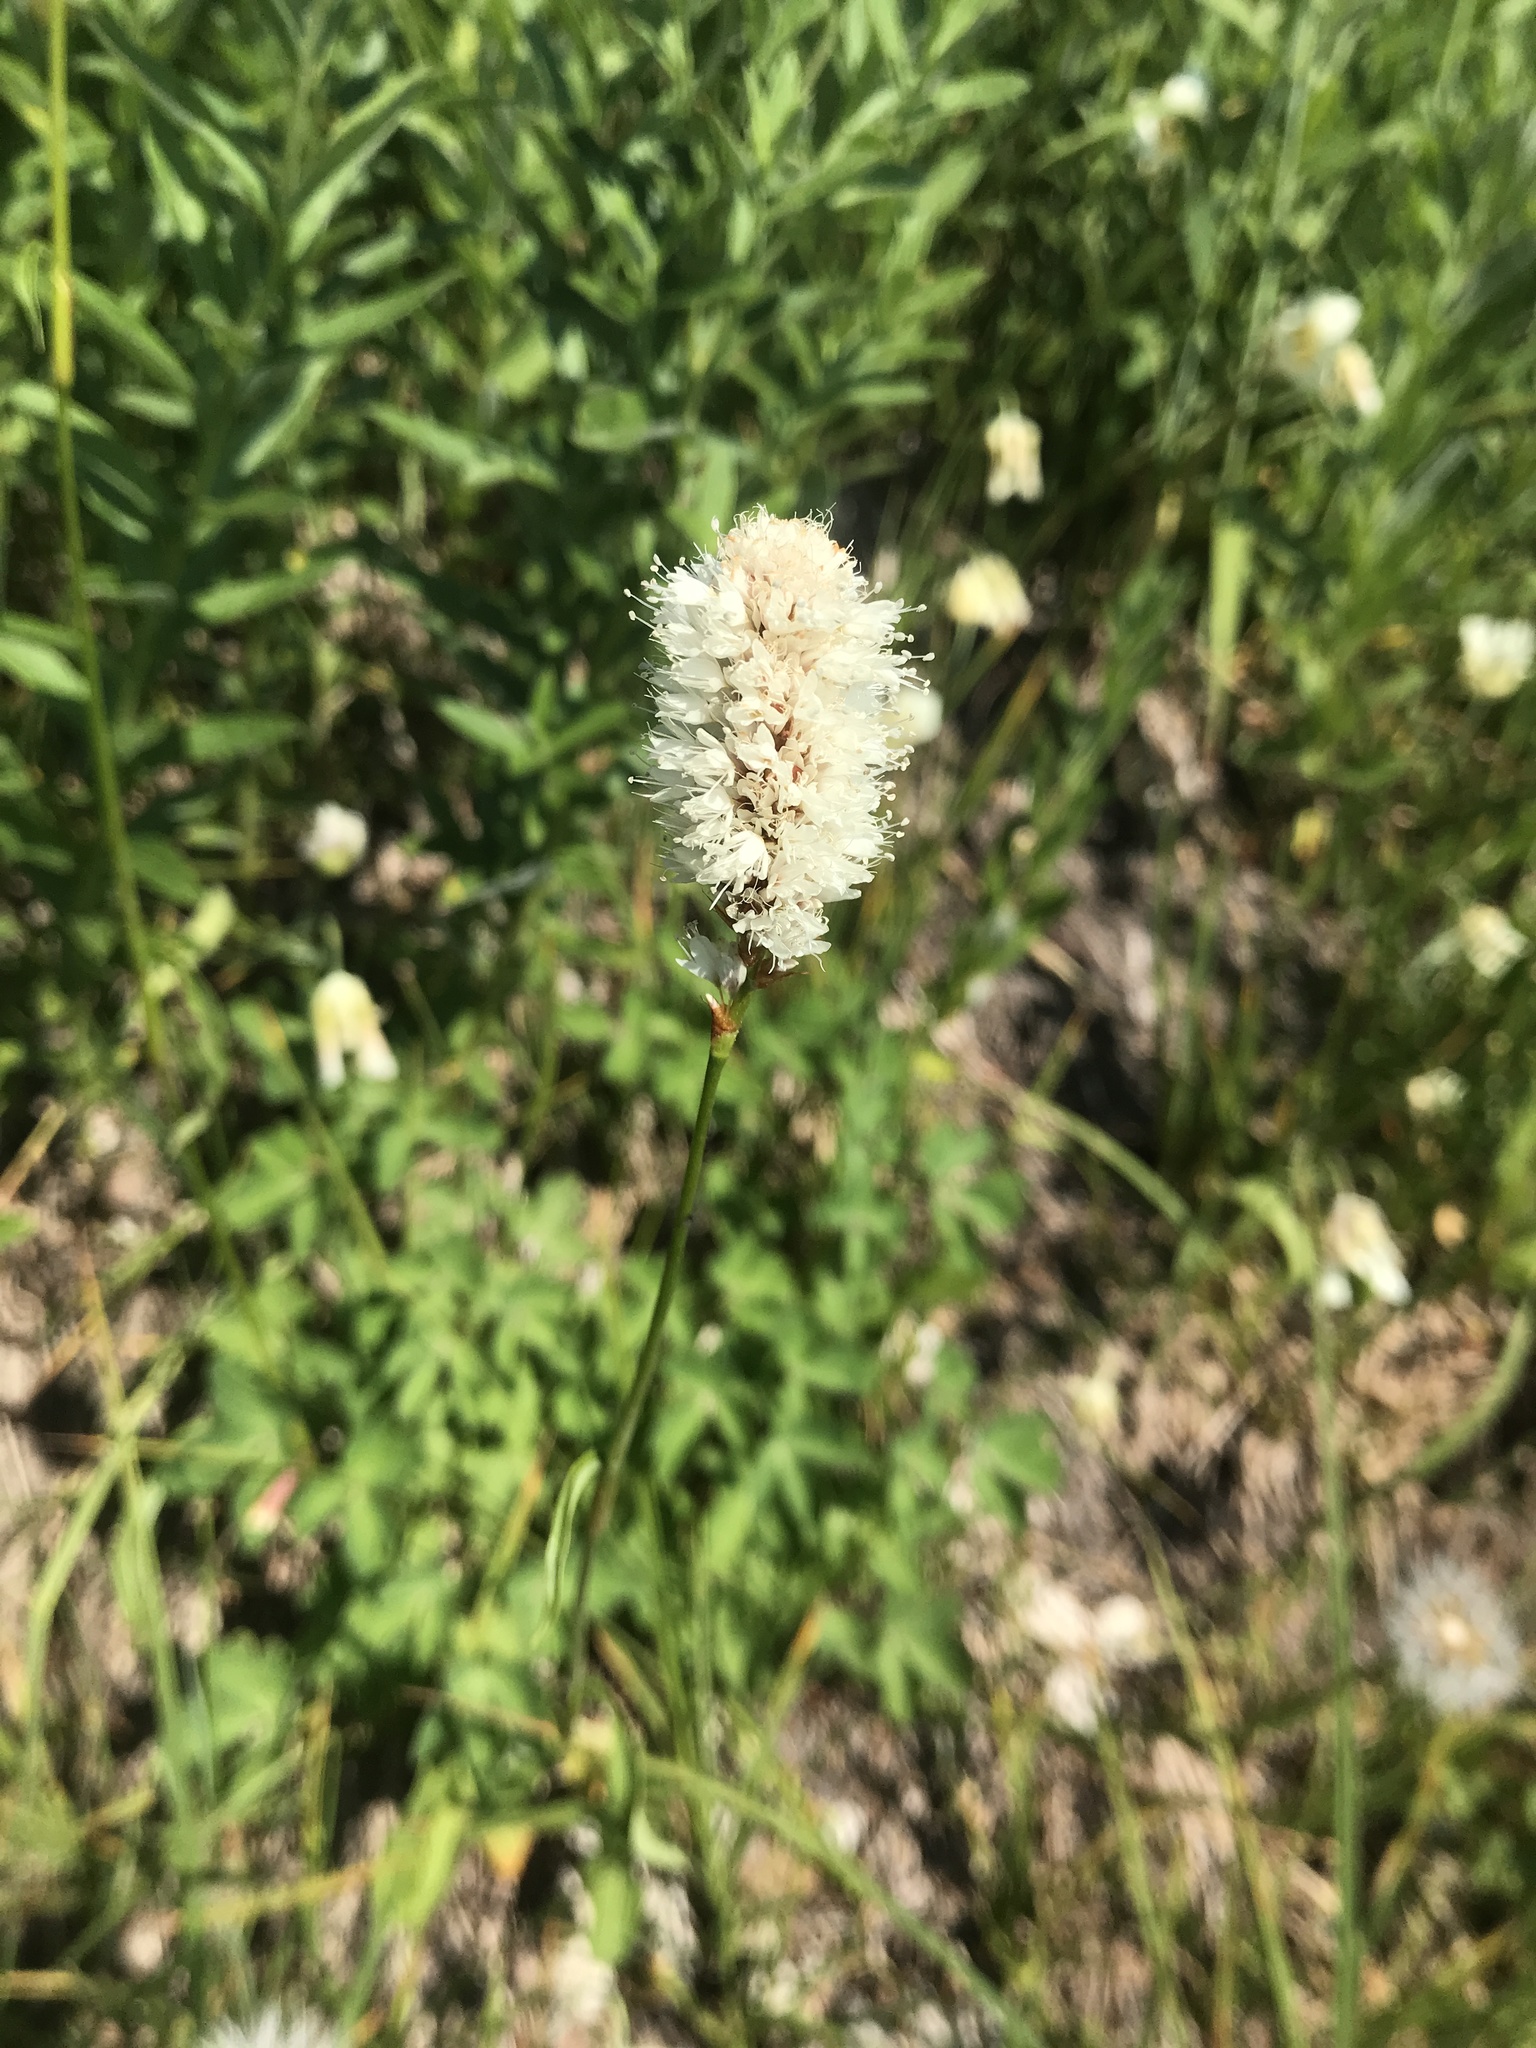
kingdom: Plantae
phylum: Tracheophyta
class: Magnoliopsida
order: Caryophyllales
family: Polygonaceae
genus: Bistorta
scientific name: Bistorta bistortoides
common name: American bistort
